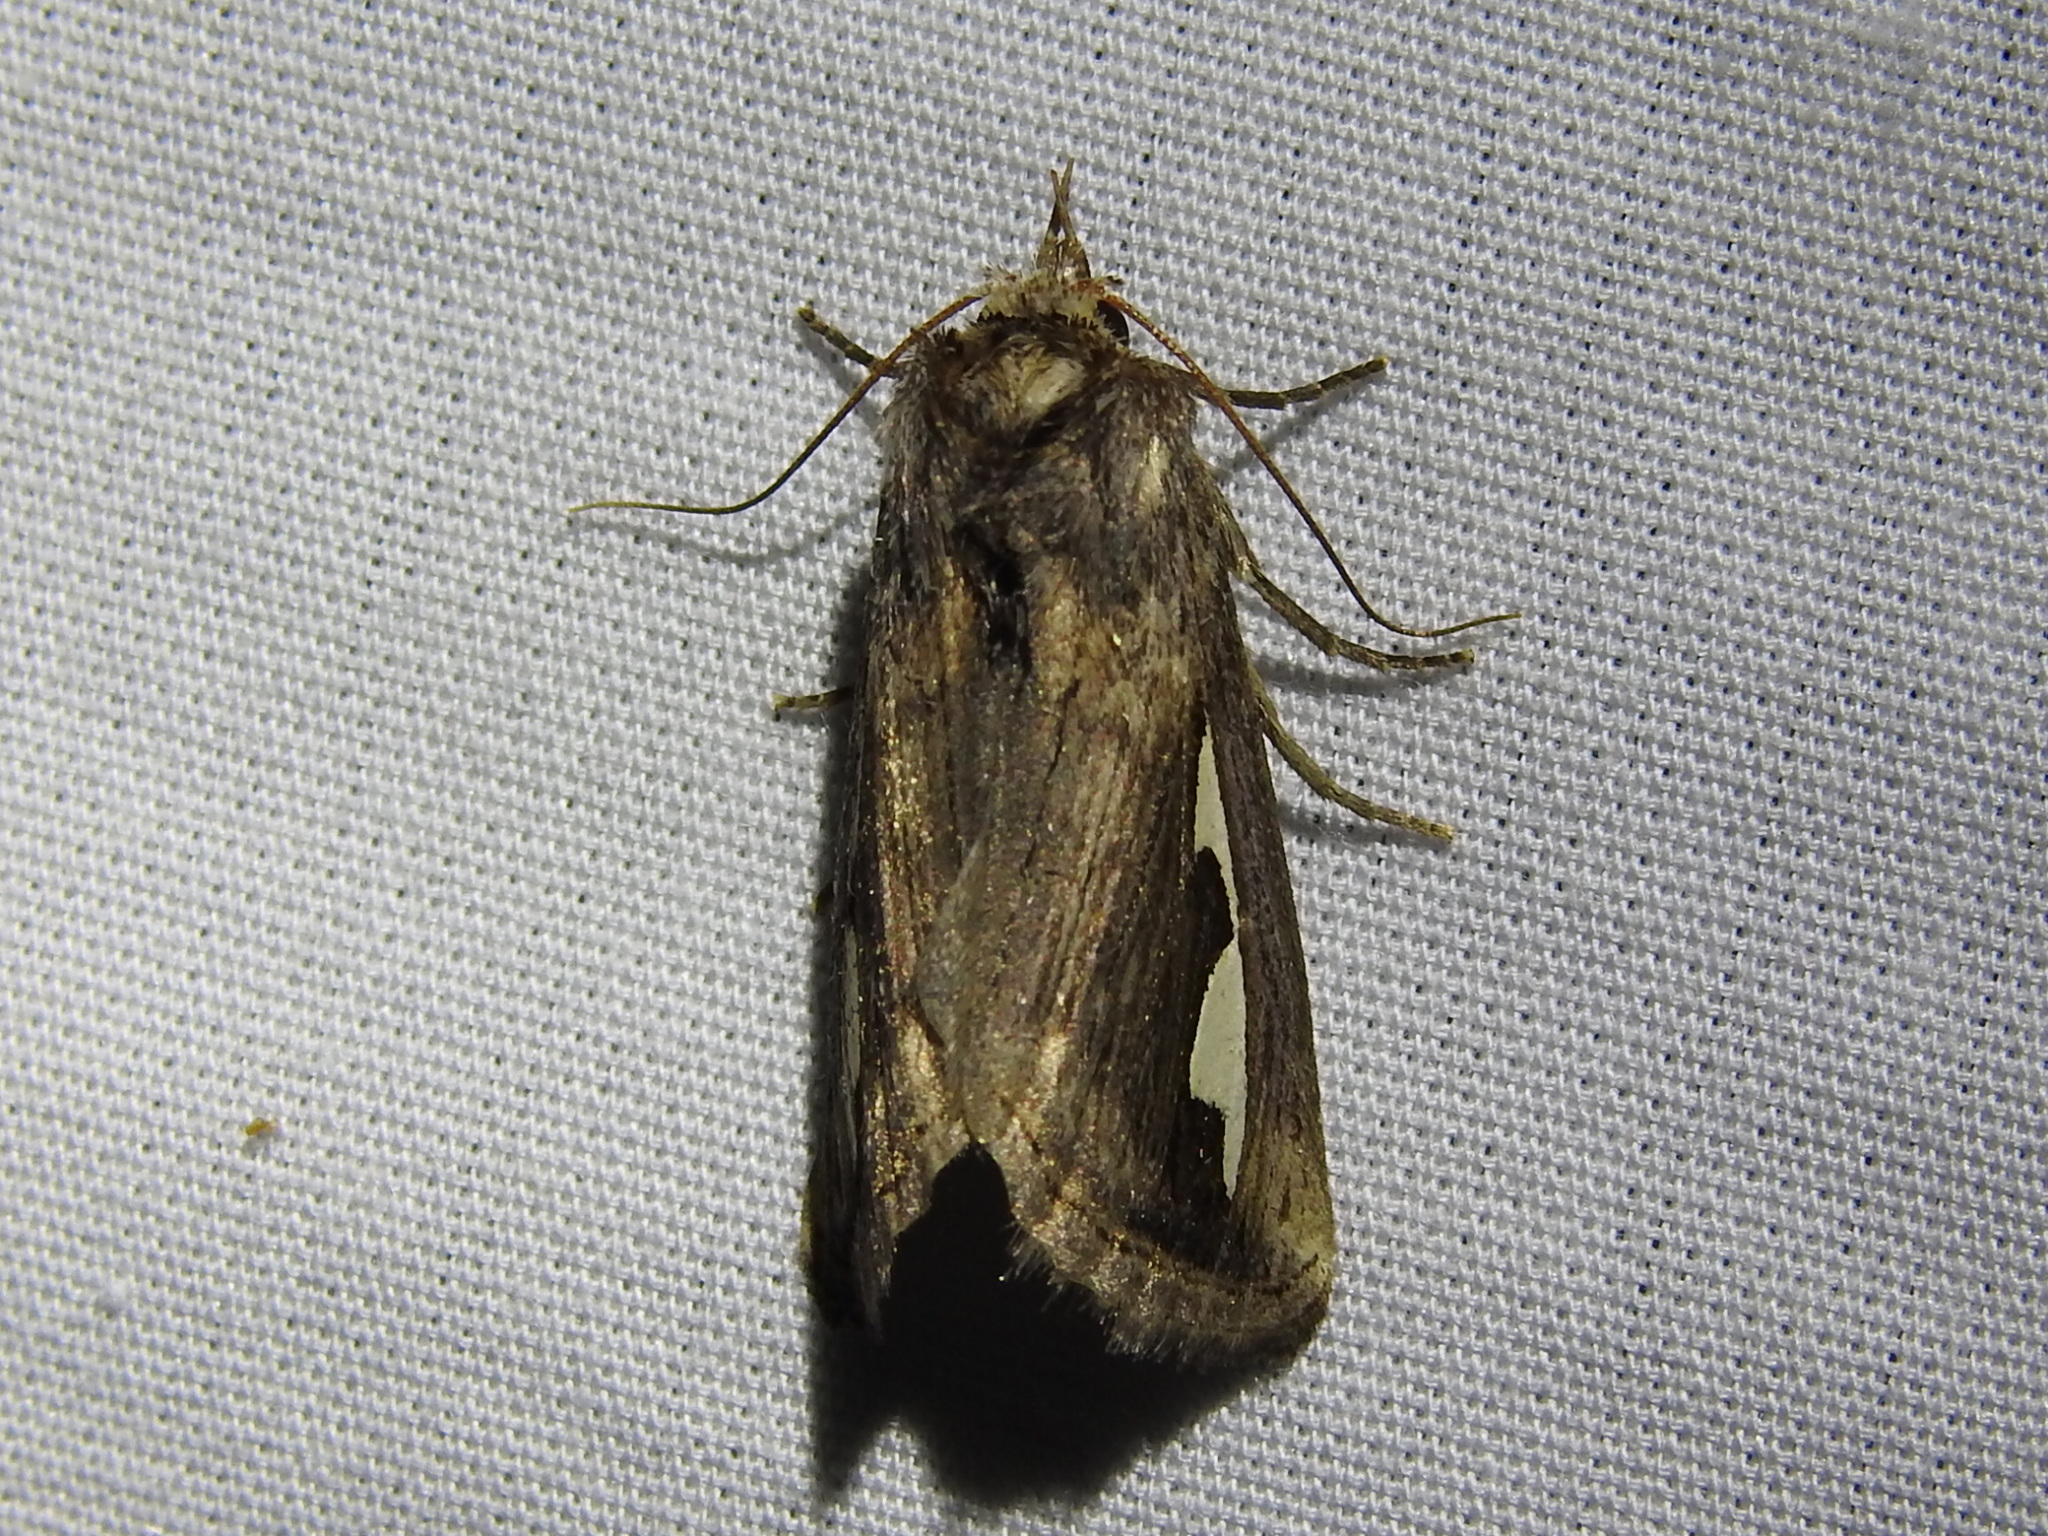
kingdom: Animalia
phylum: Arthropoda
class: Insecta
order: Lepidoptera
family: Notodontidae
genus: Didugua
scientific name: Didugua argentilinea
